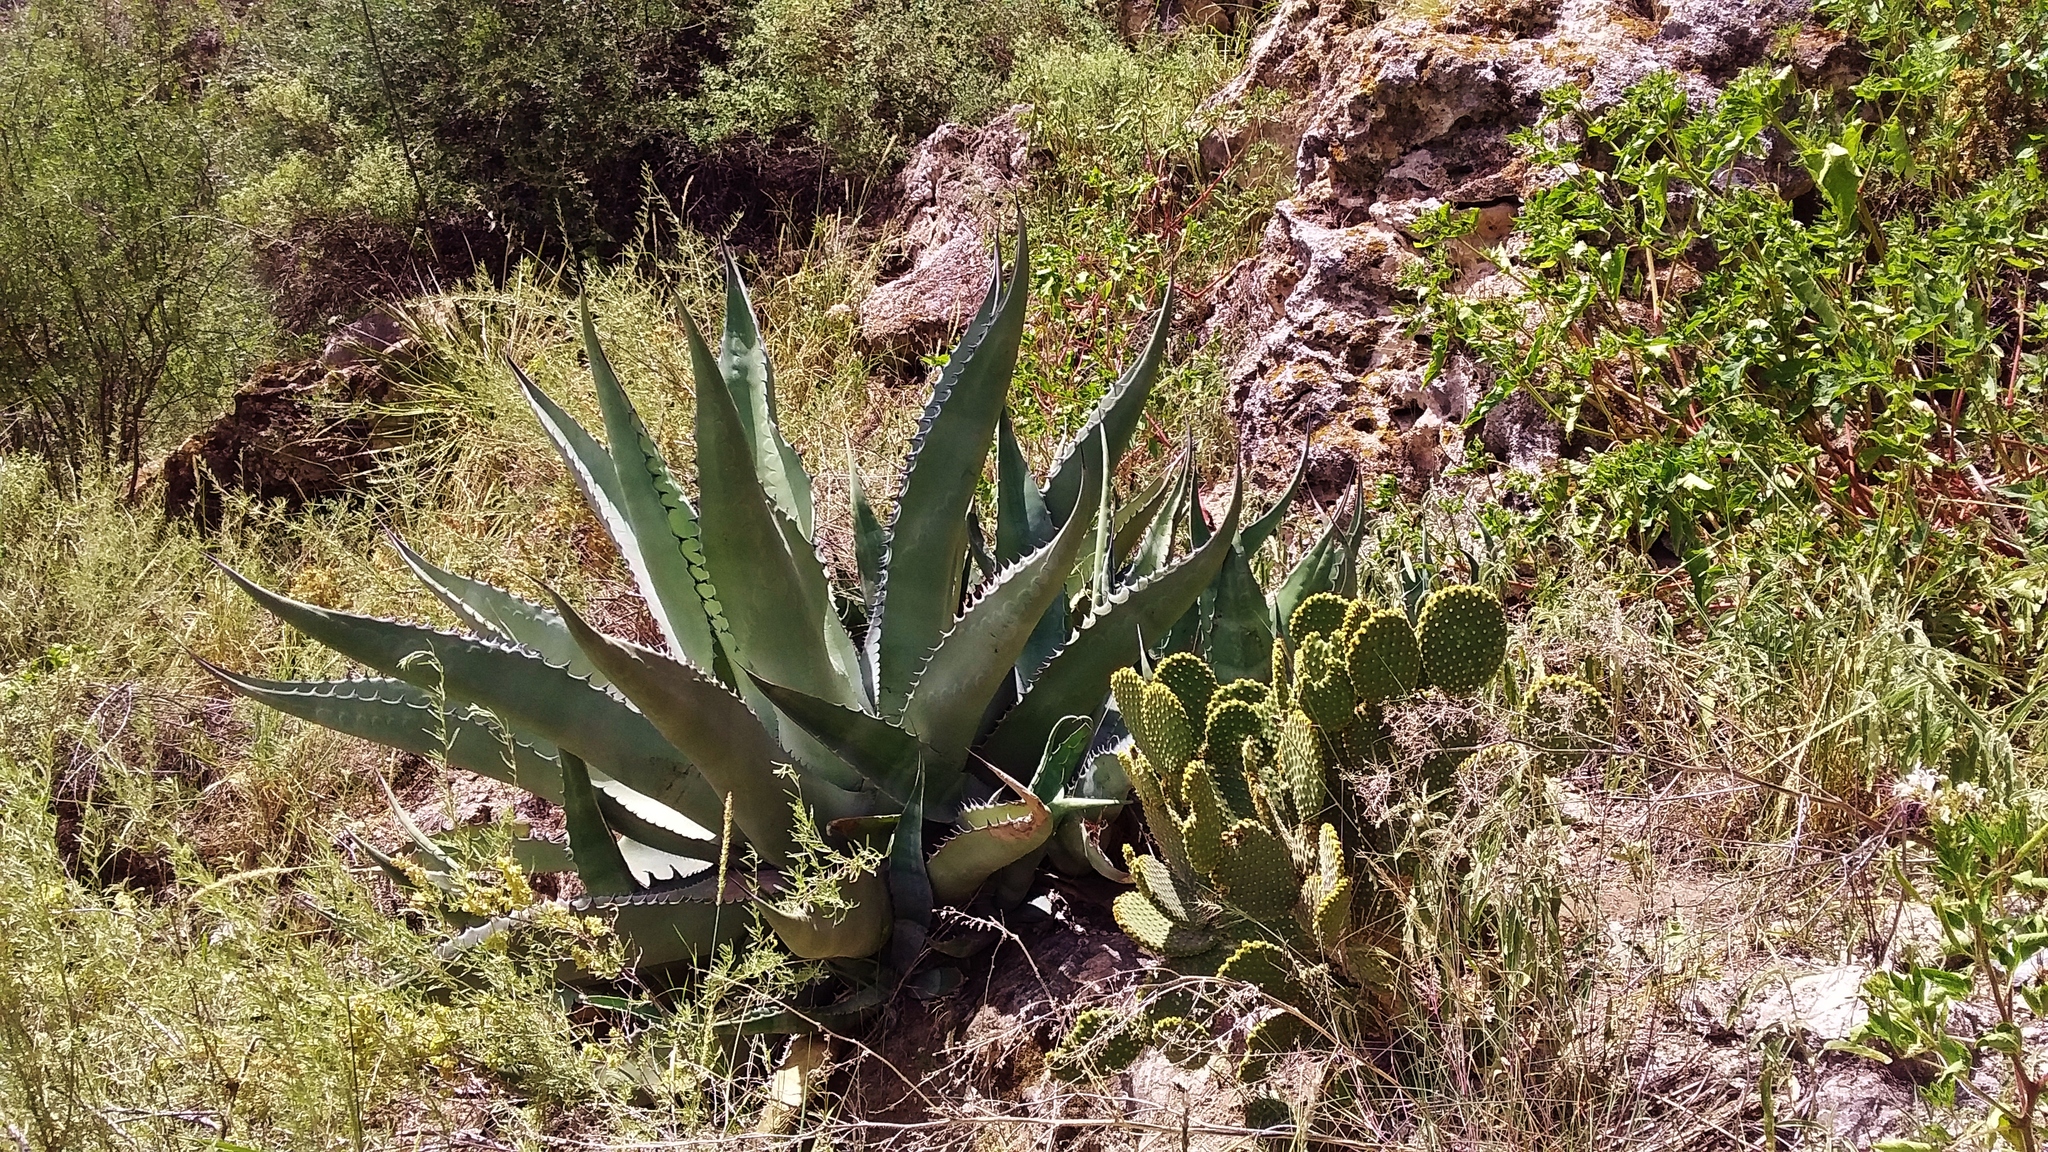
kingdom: Plantae
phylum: Tracheophyta
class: Liliopsida
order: Asparagales
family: Asparagaceae
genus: Agave
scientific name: Agave salmiana
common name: Pulque agave
